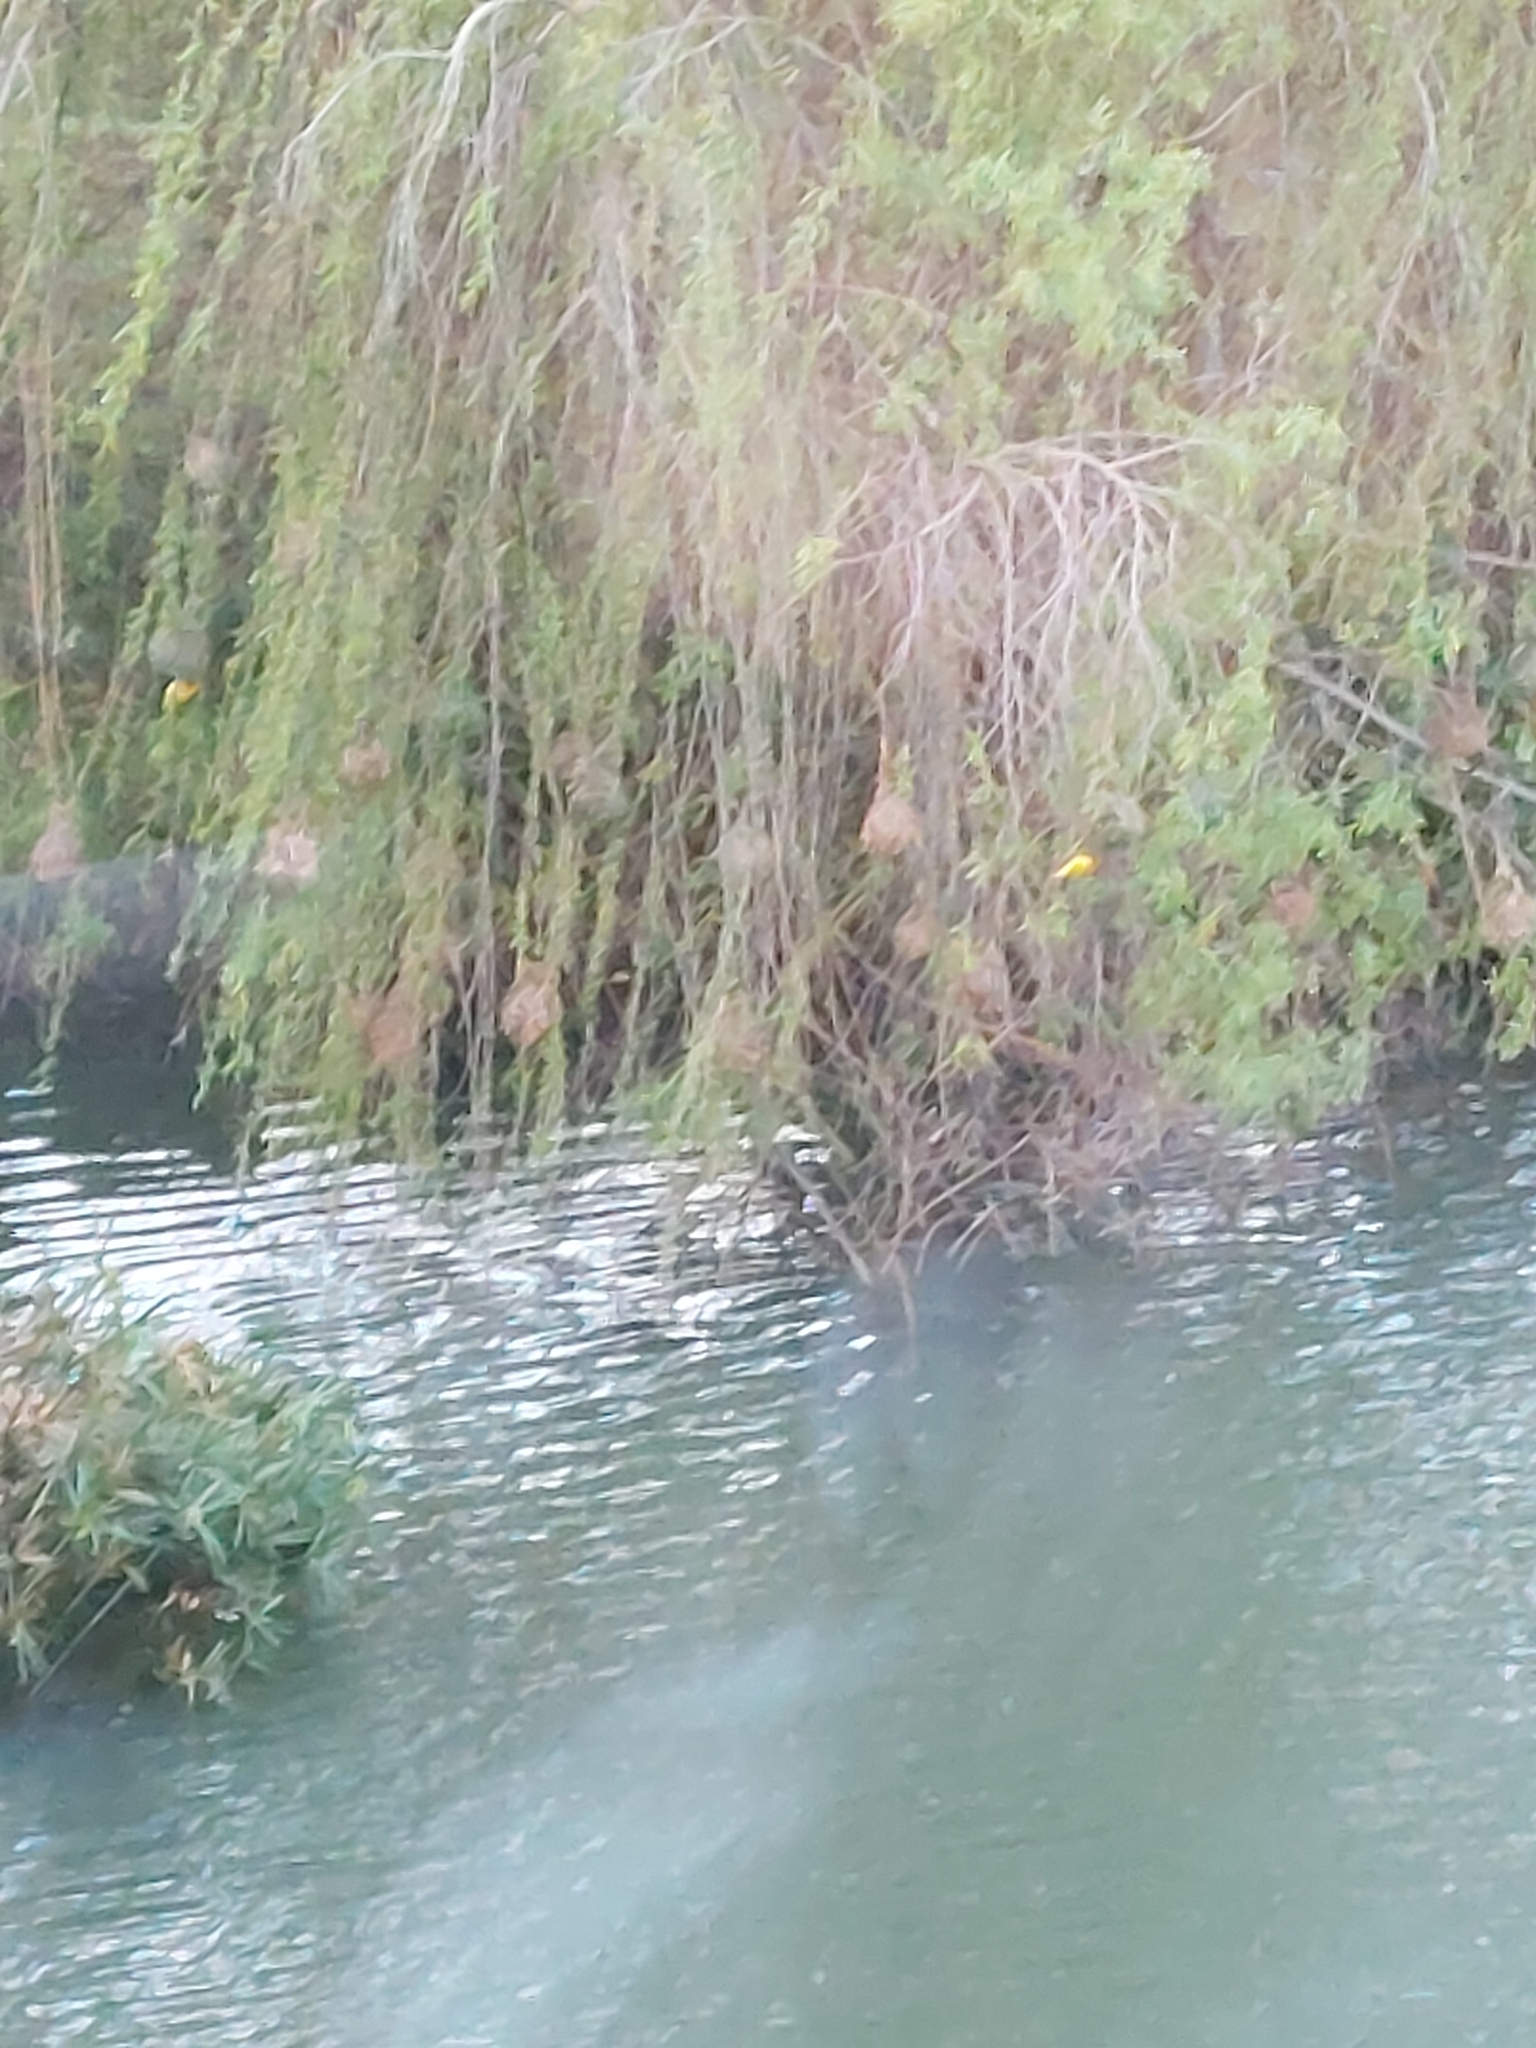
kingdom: Animalia
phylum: Chordata
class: Aves
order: Passeriformes
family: Ploceidae
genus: Ploceus
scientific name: Ploceus capensis
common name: Cape weaver
